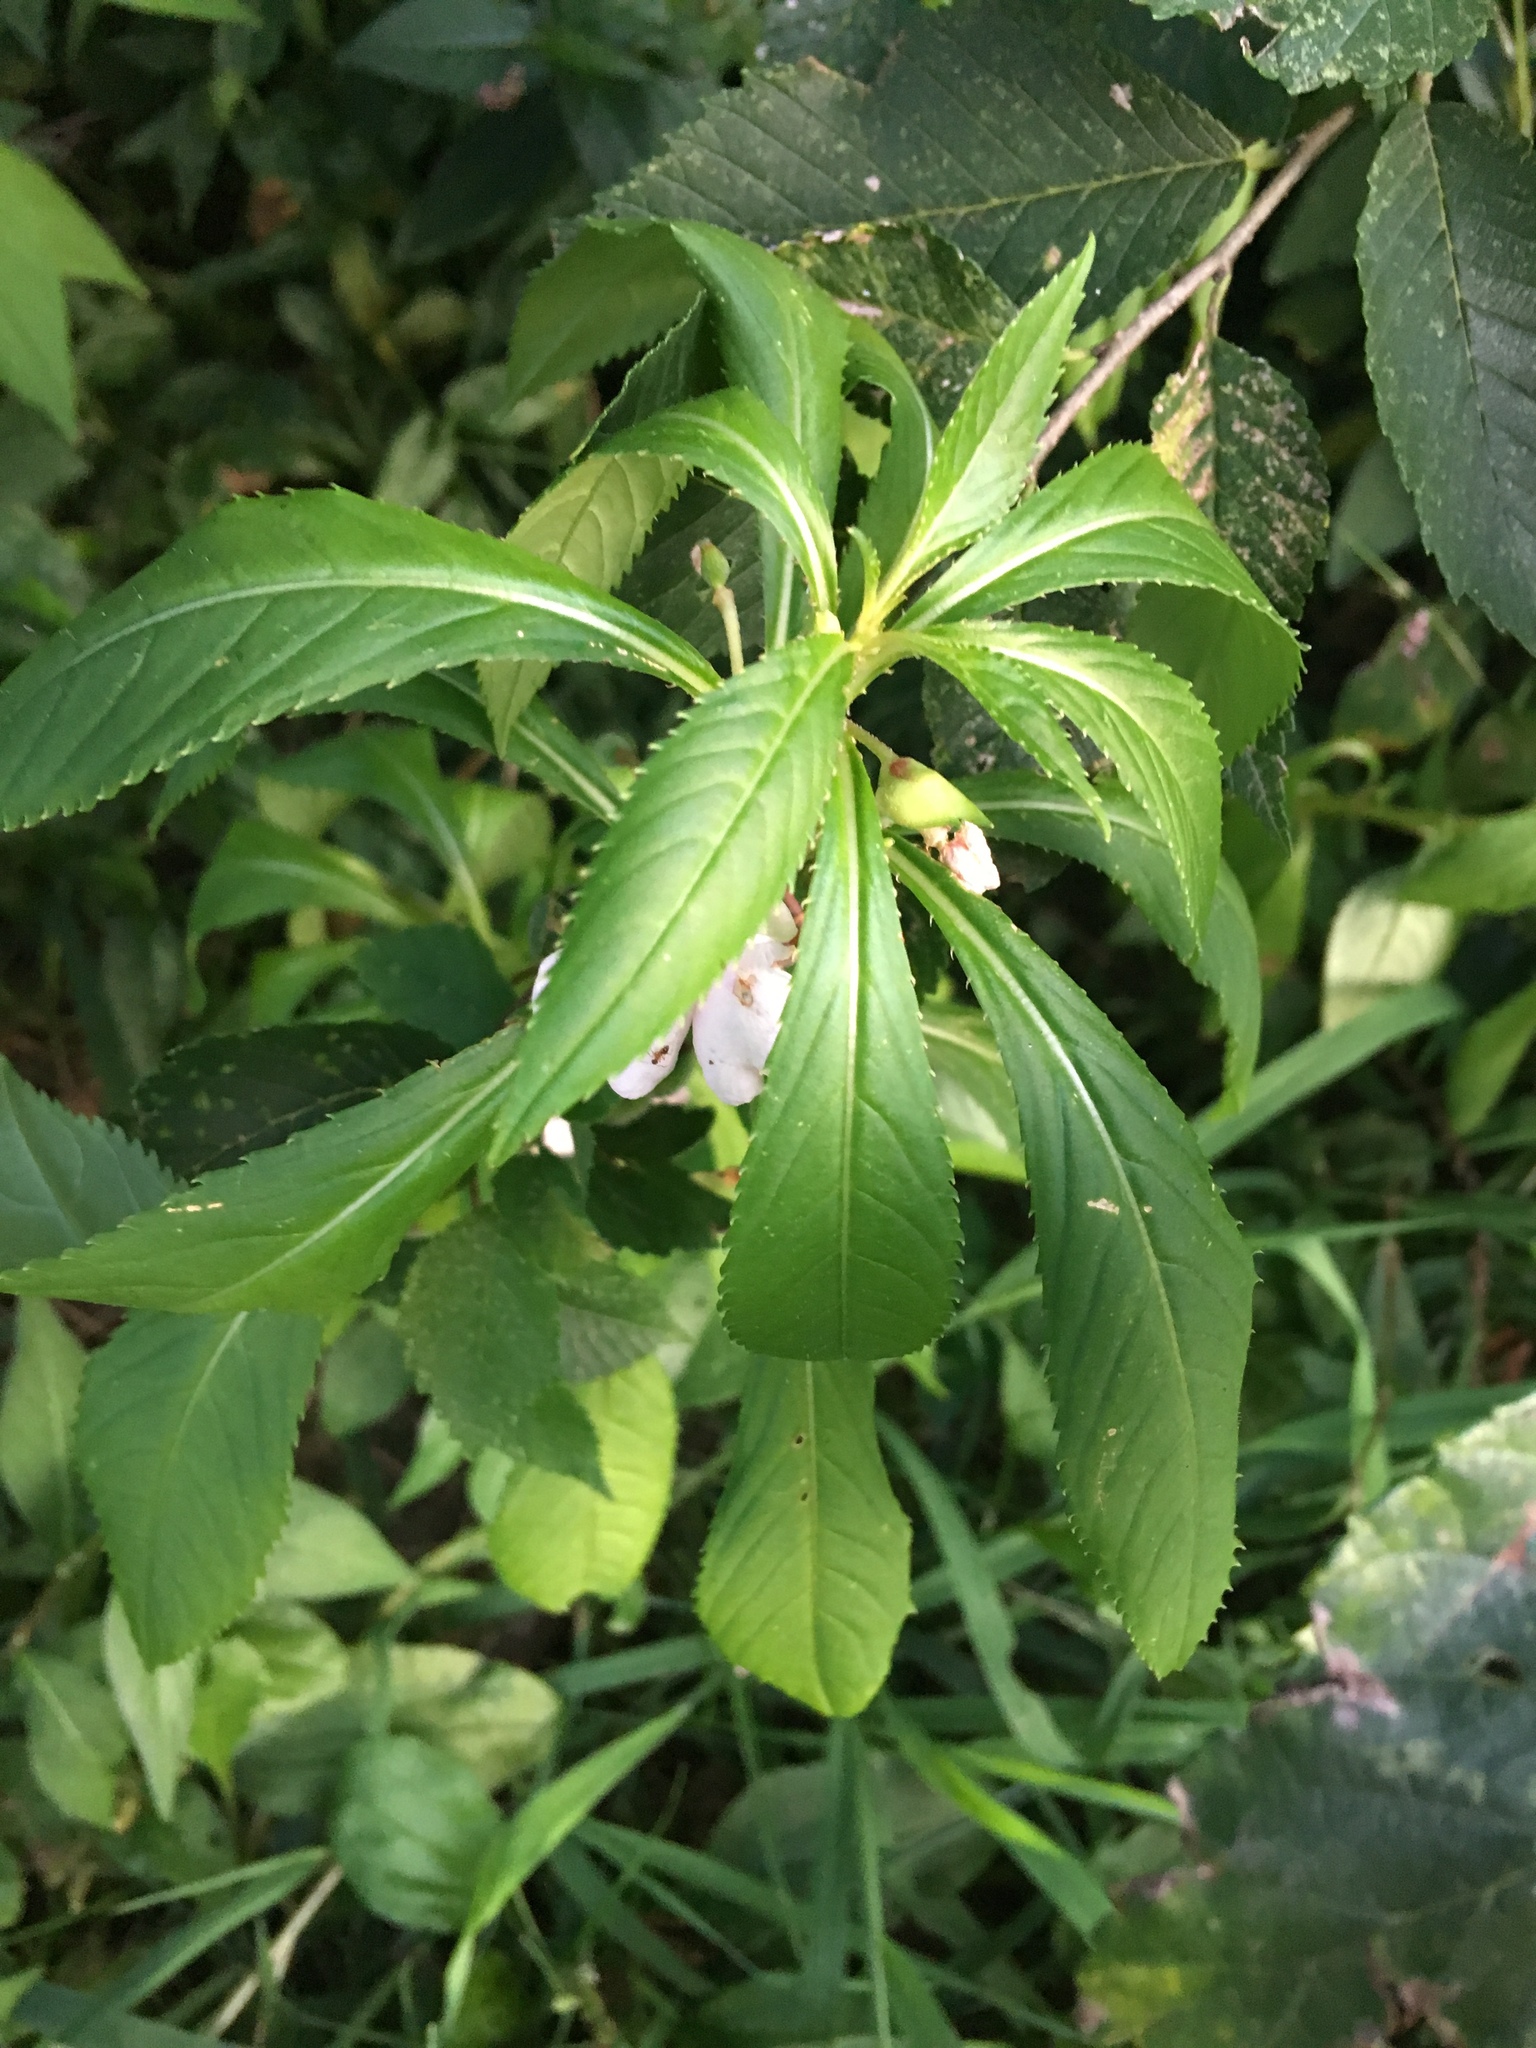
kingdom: Plantae
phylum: Tracheophyta
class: Magnoliopsida
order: Ericales
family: Balsaminaceae
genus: Impatiens
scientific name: Impatiens balsamina
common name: Balsam
